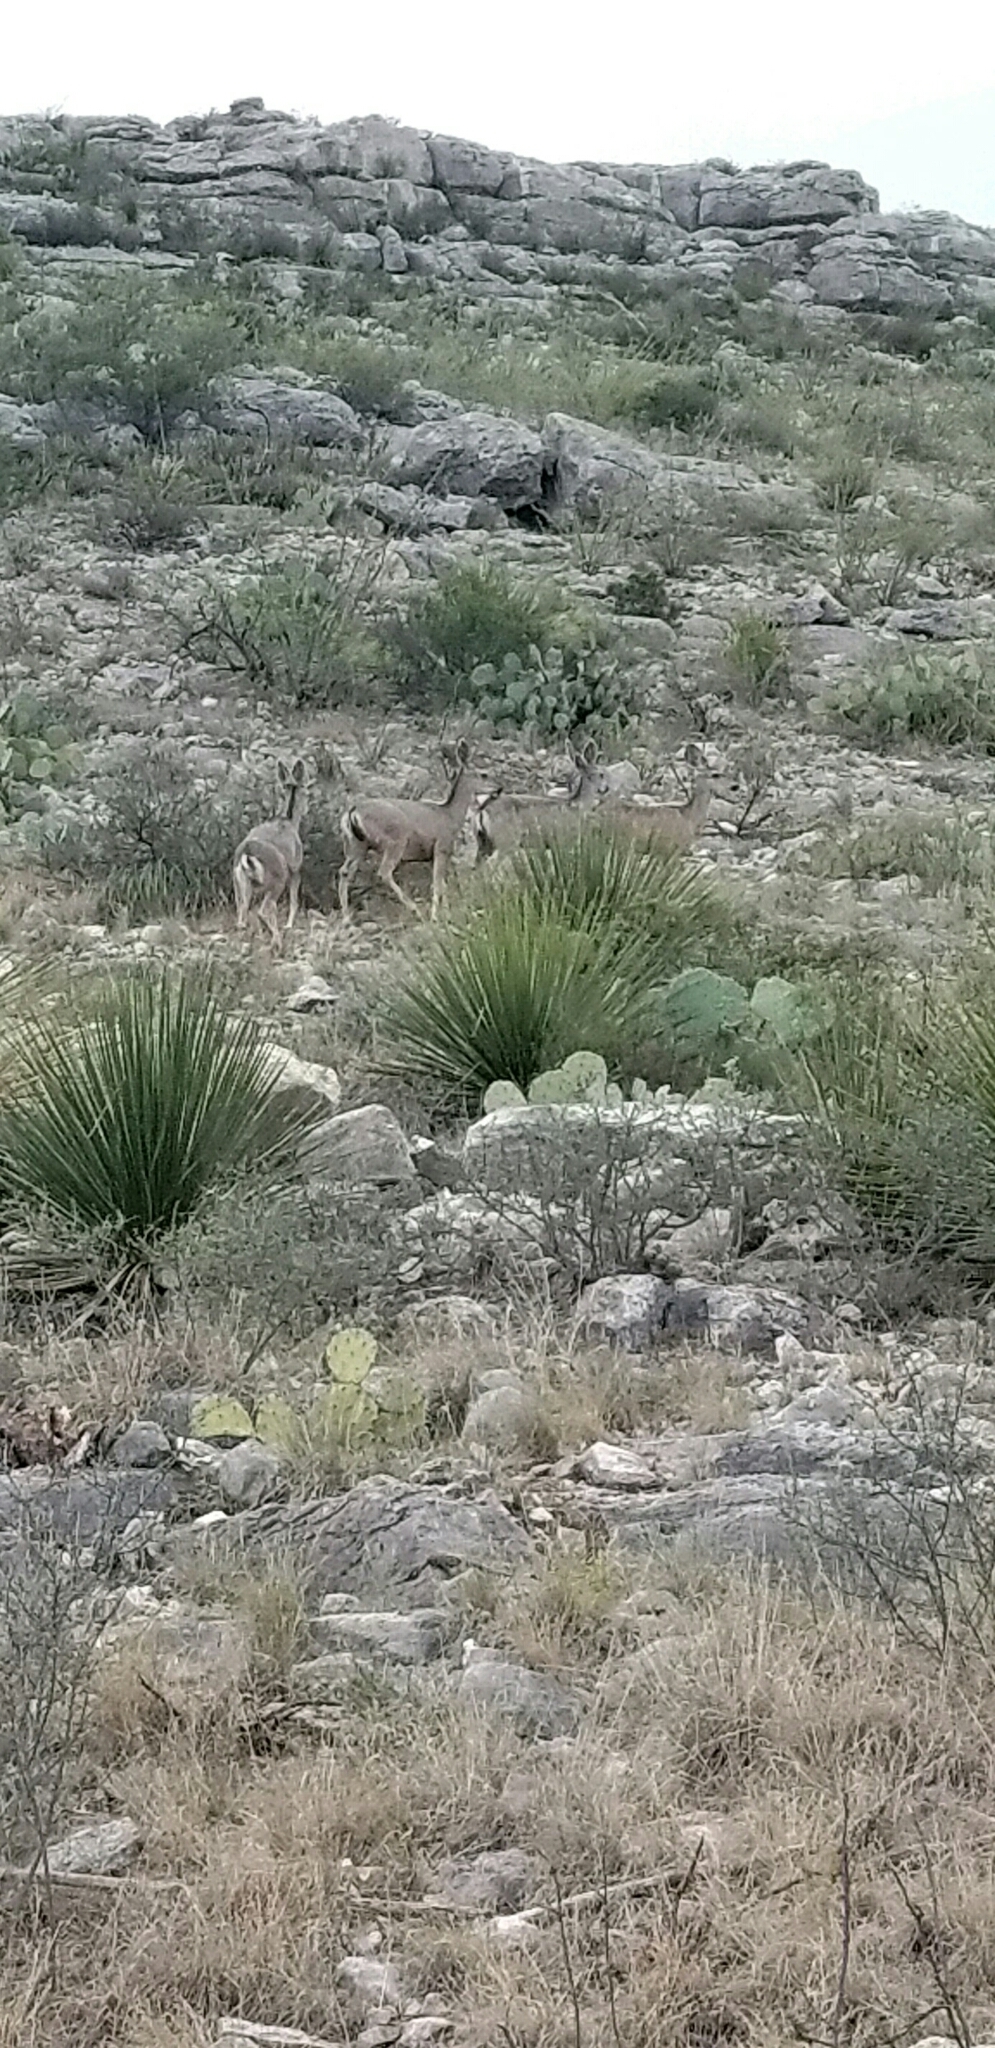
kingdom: Animalia
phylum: Chordata
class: Mammalia
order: Artiodactyla
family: Cervidae
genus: Odocoileus
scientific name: Odocoileus hemionus
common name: Mule deer
